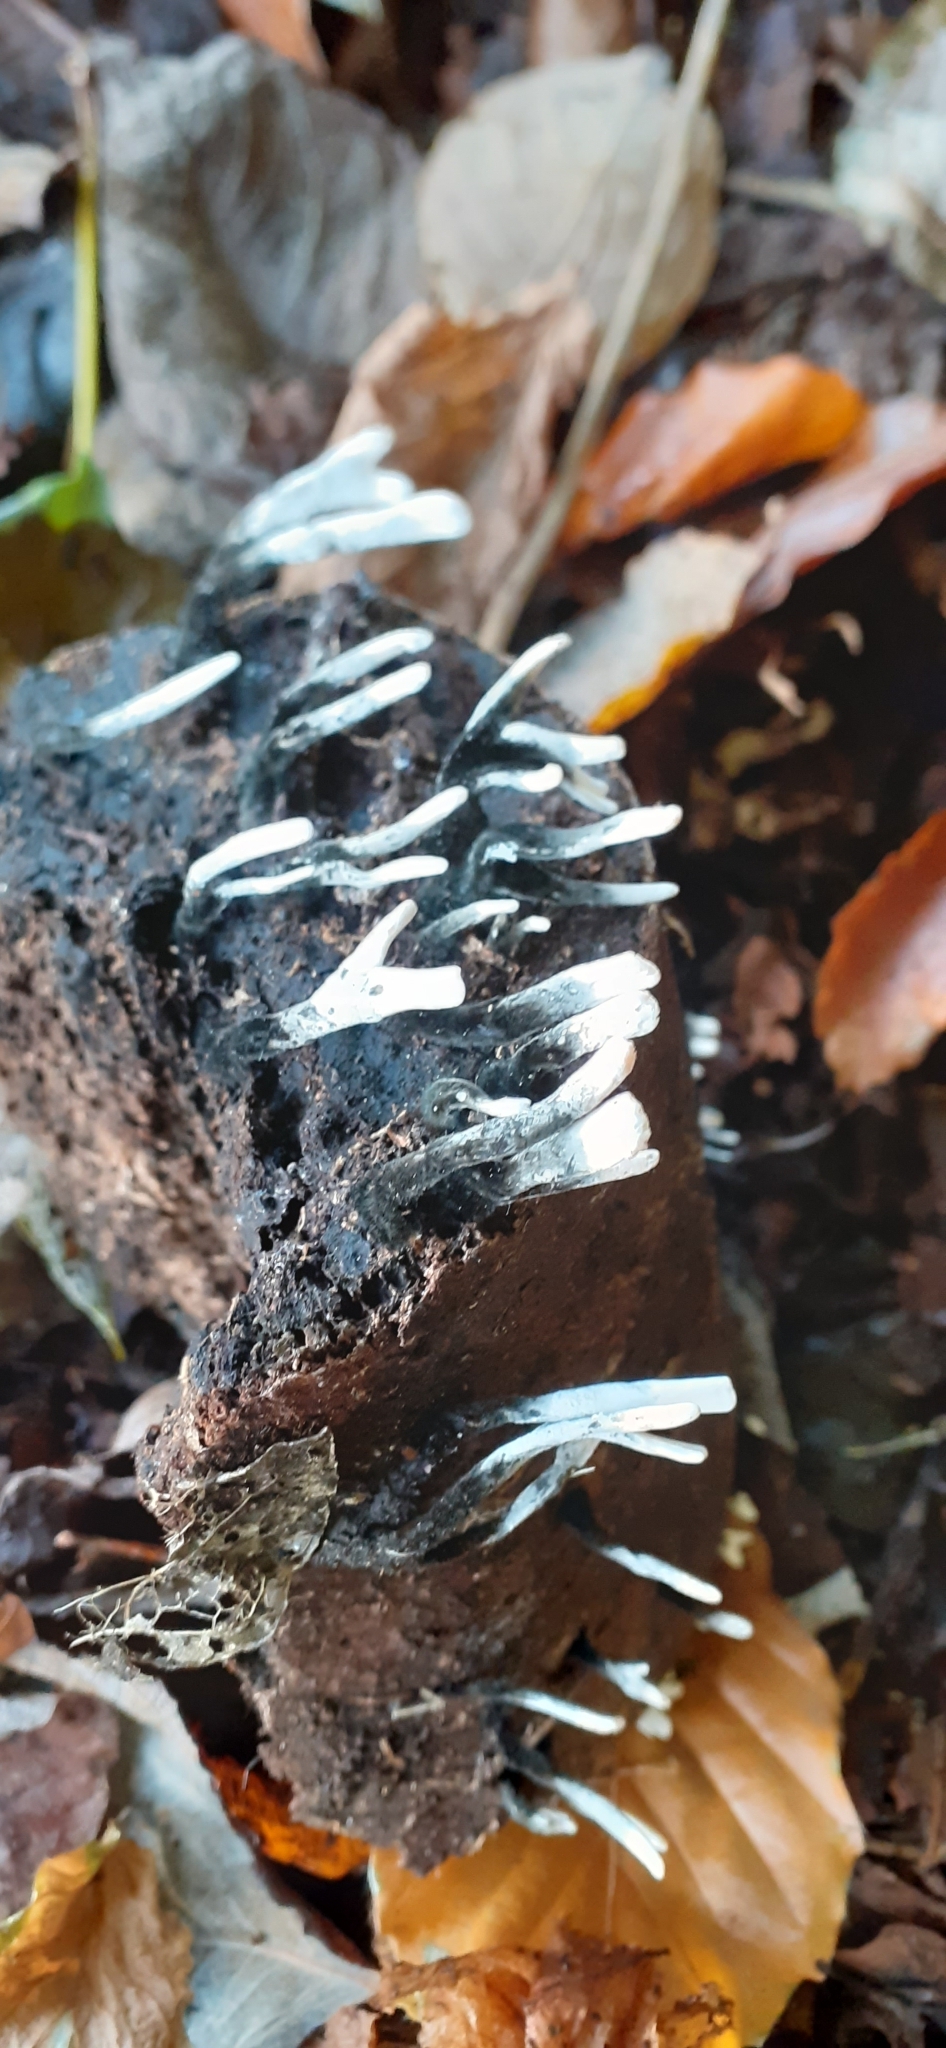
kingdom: Fungi
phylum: Ascomycota
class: Sordariomycetes
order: Xylariales
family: Xylariaceae
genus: Xylaria
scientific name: Xylaria hypoxylon
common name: Candle-snuff fungus
